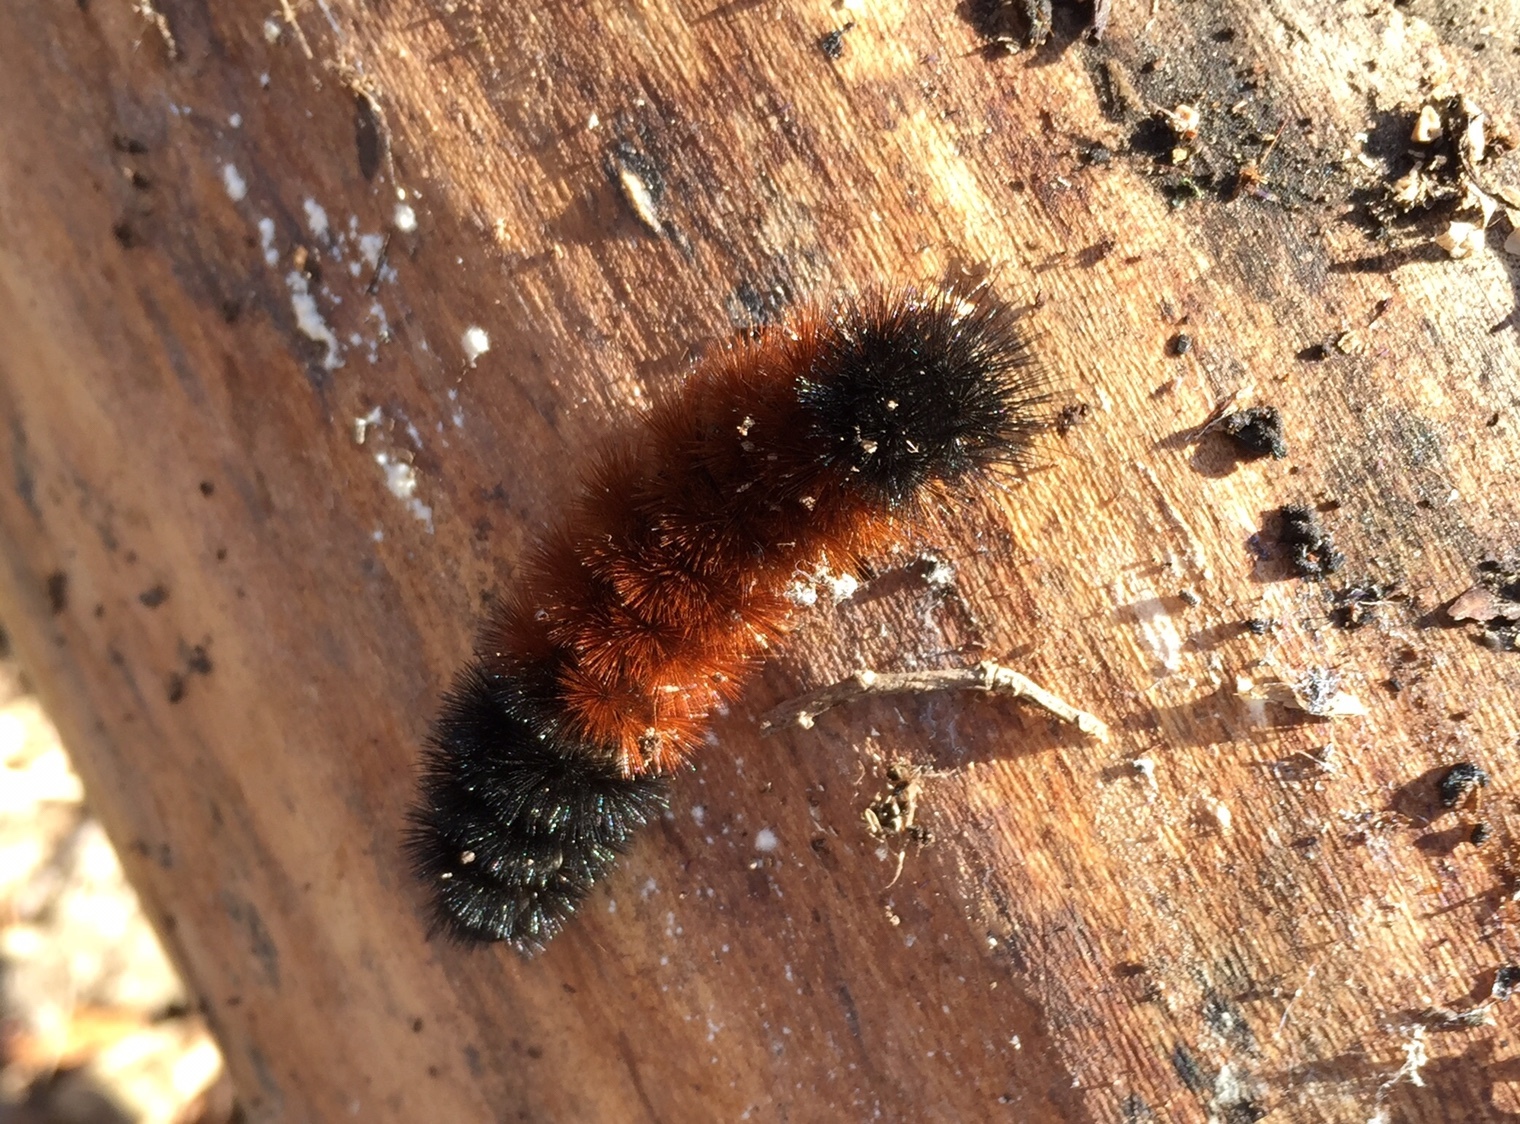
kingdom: Animalia
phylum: Arthropoda
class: Insecta
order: Lepidoptera
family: Erebidae
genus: Pyrrharctia
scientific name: Pyrrharctia isabella
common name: Isabella tiger moth
